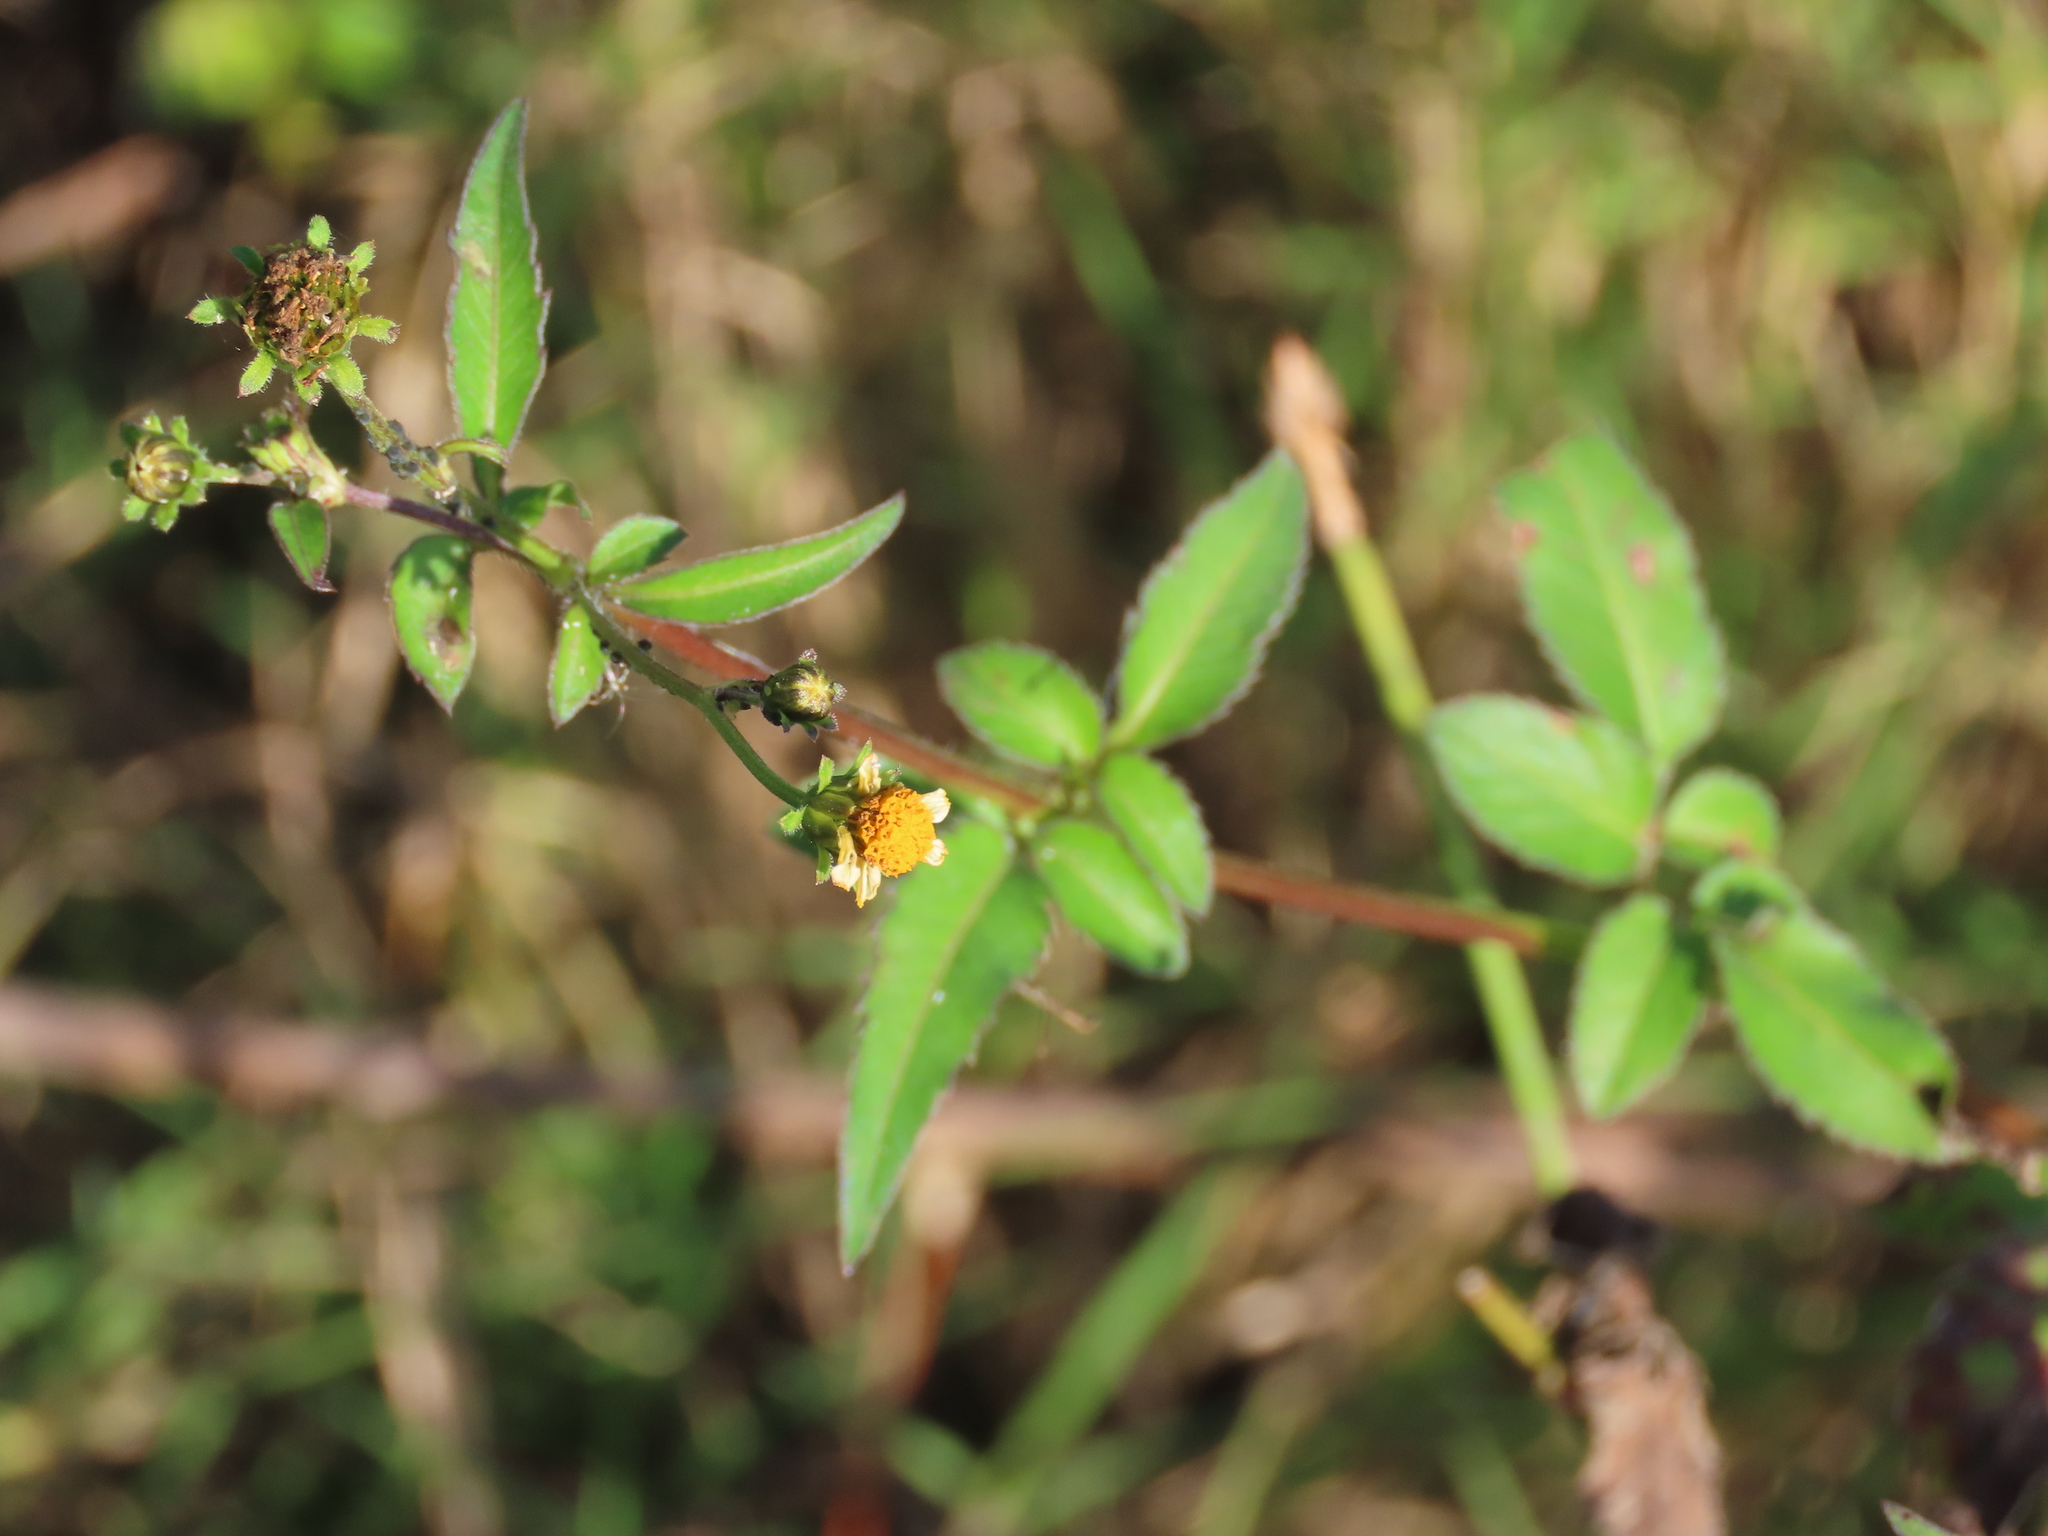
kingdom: Plantae
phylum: Tracheophyta
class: Magnoliopsida
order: Asterales
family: Asteraceae
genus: Bidens
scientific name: Bidens pilosa
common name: Black-jack
